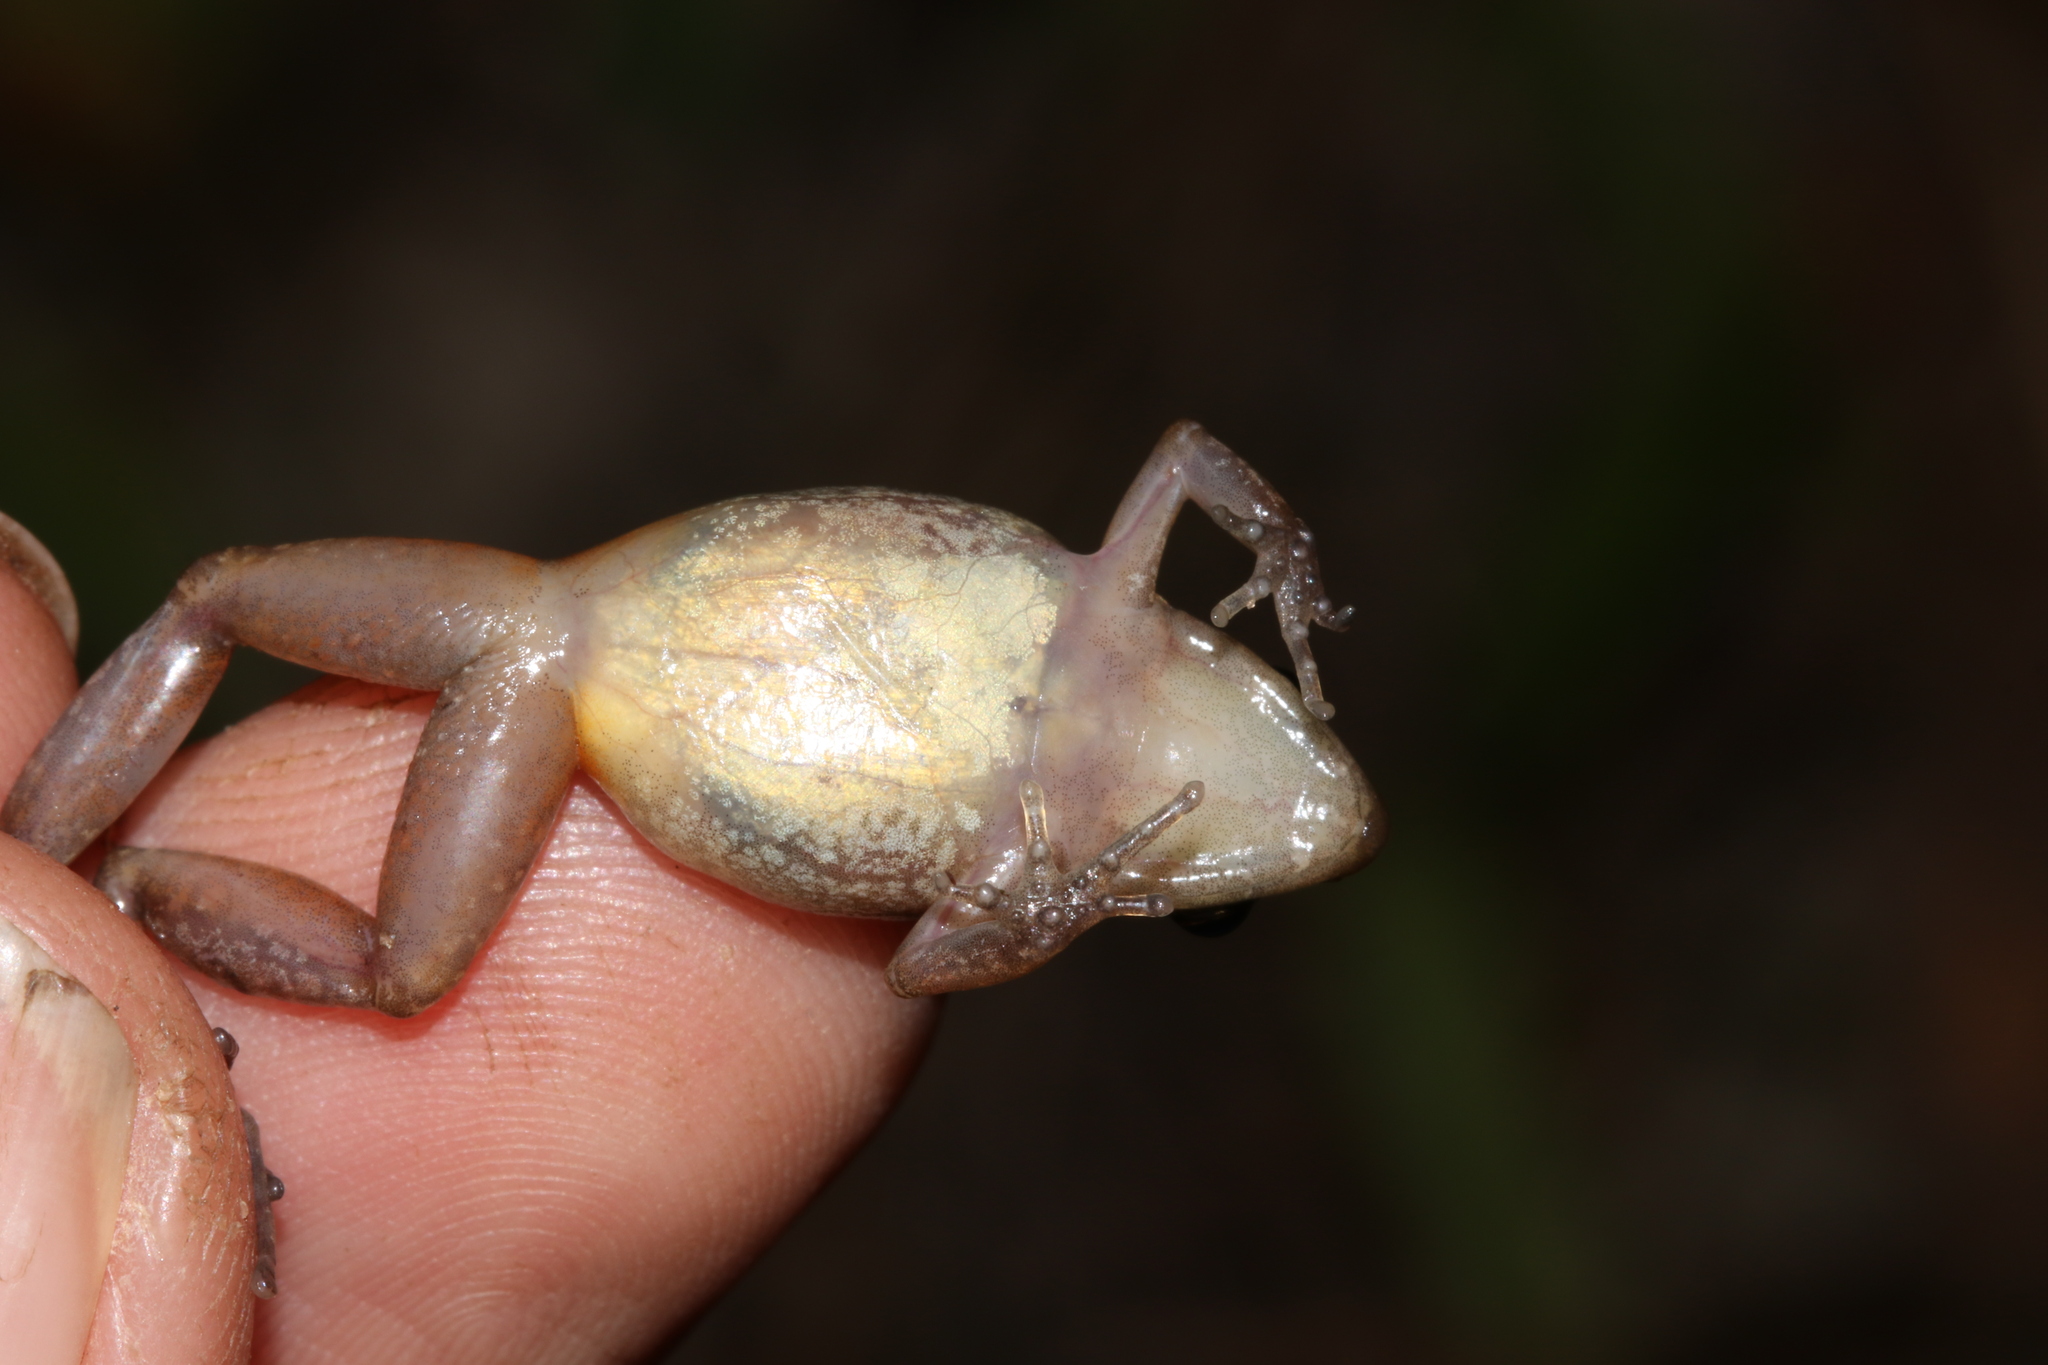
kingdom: Animalia
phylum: Chordata
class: Amphibia
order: Anura
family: Arthroleptidae
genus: Arthroleptis
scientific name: Arthroleptis xenodactyloides
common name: Chirinda screeching frog
